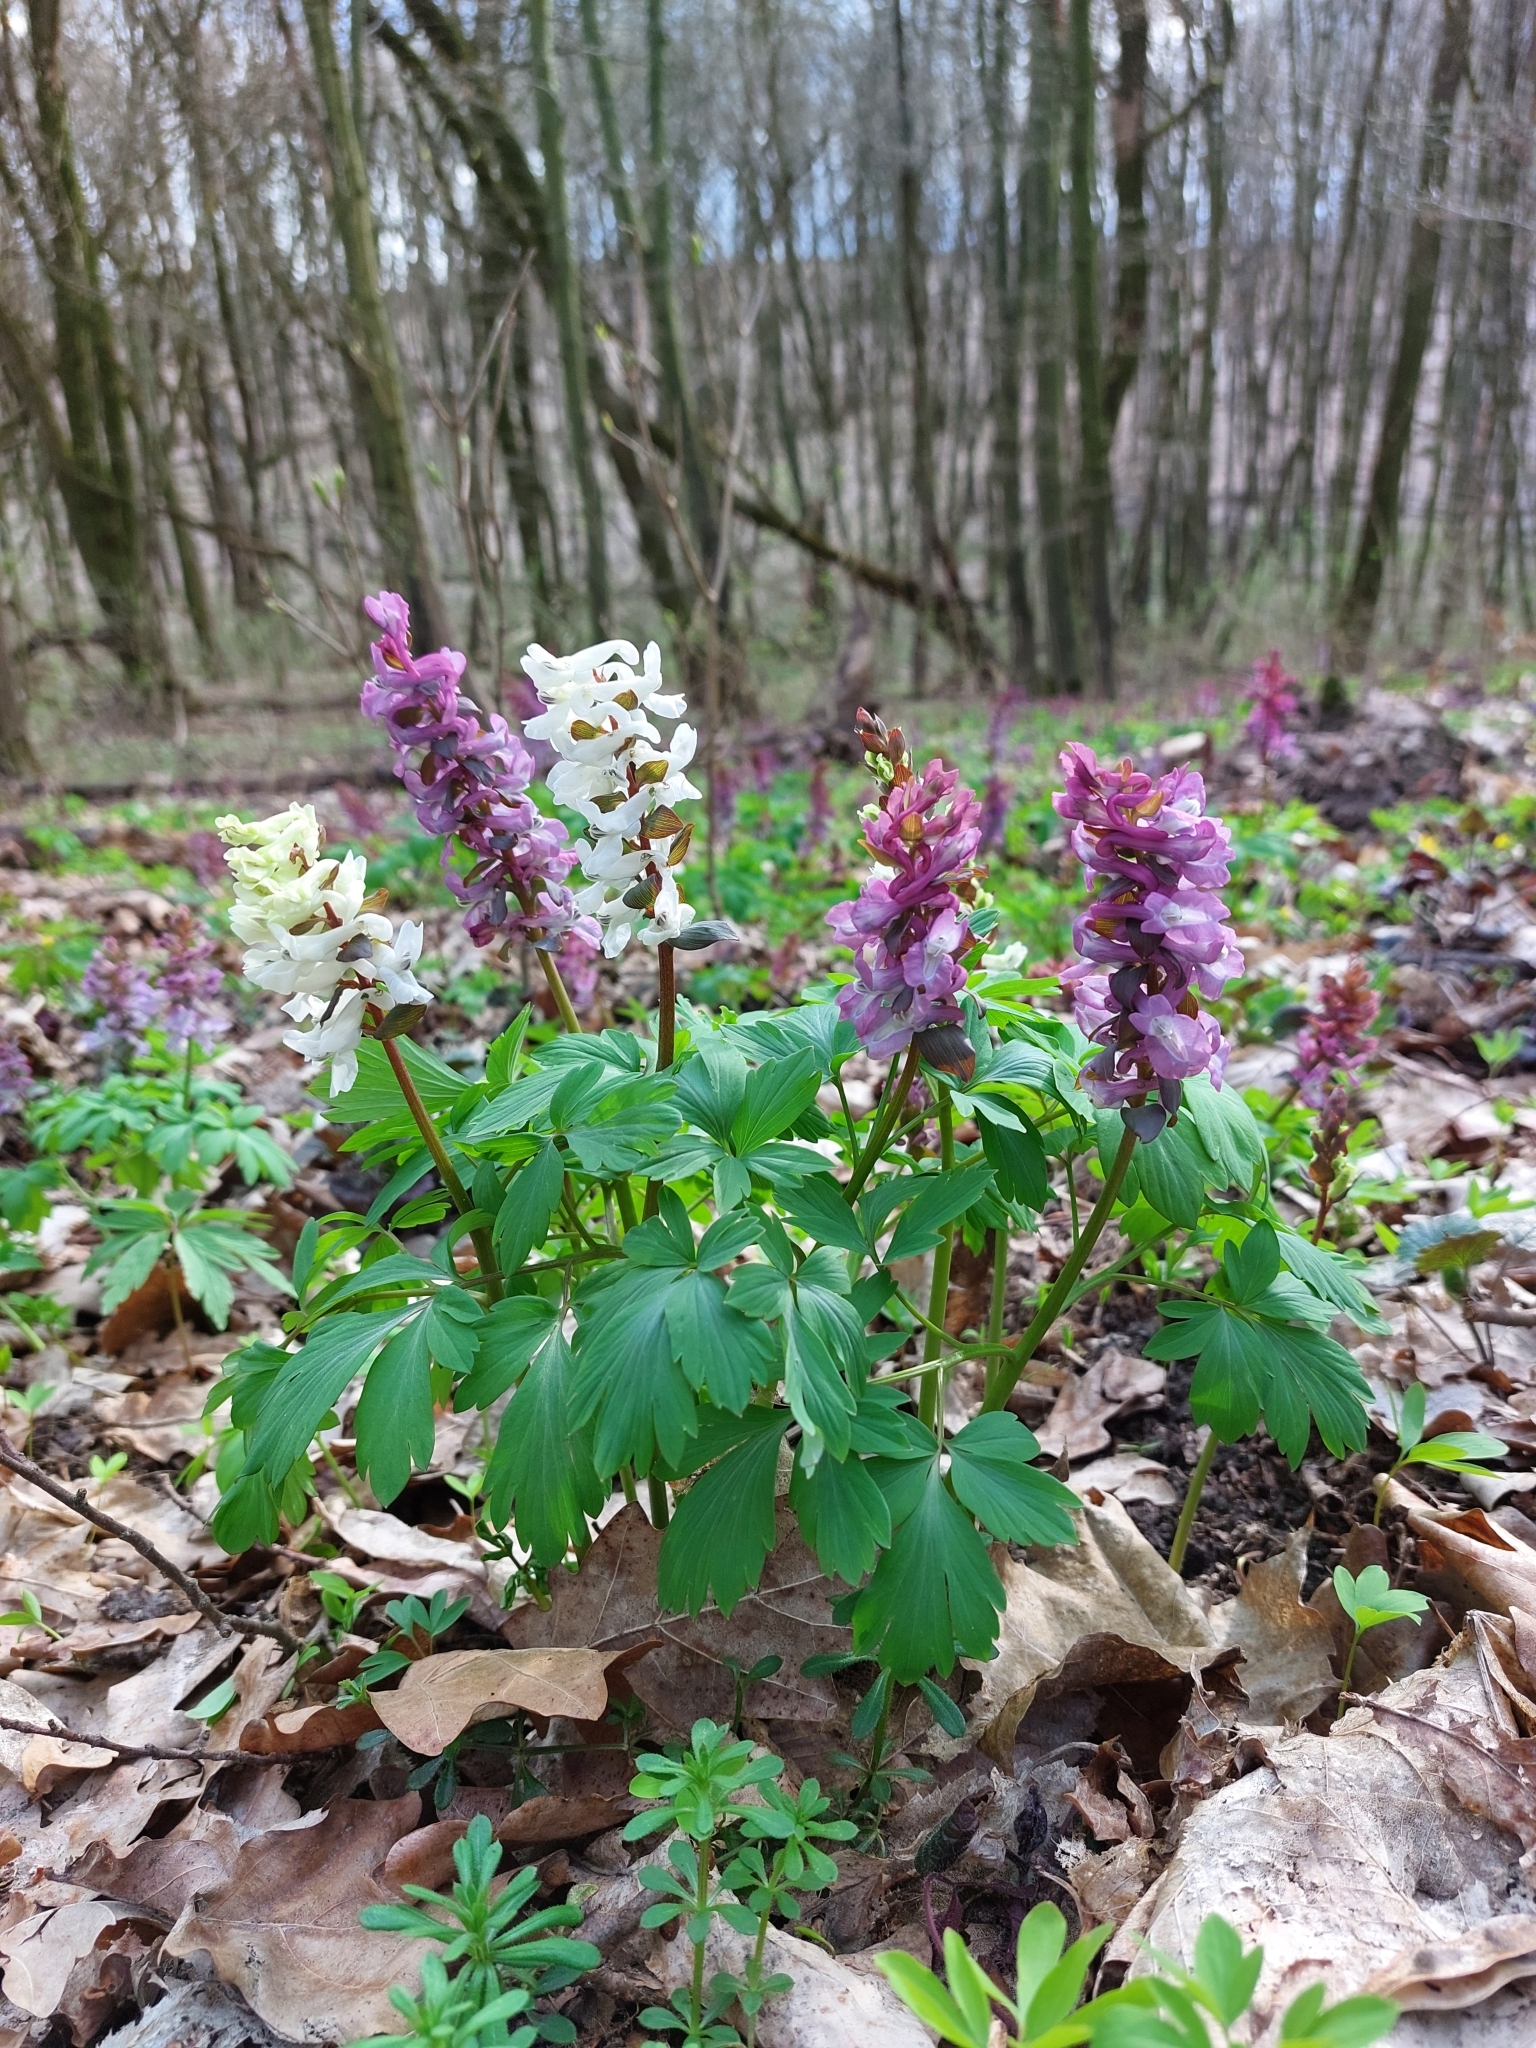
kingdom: Plantae
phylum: Tracheophyta
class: Magnoliopsida
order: Ranunculales
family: Papaveraceae
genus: Corydalis
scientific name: Corydalis cava
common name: Hollowroot
